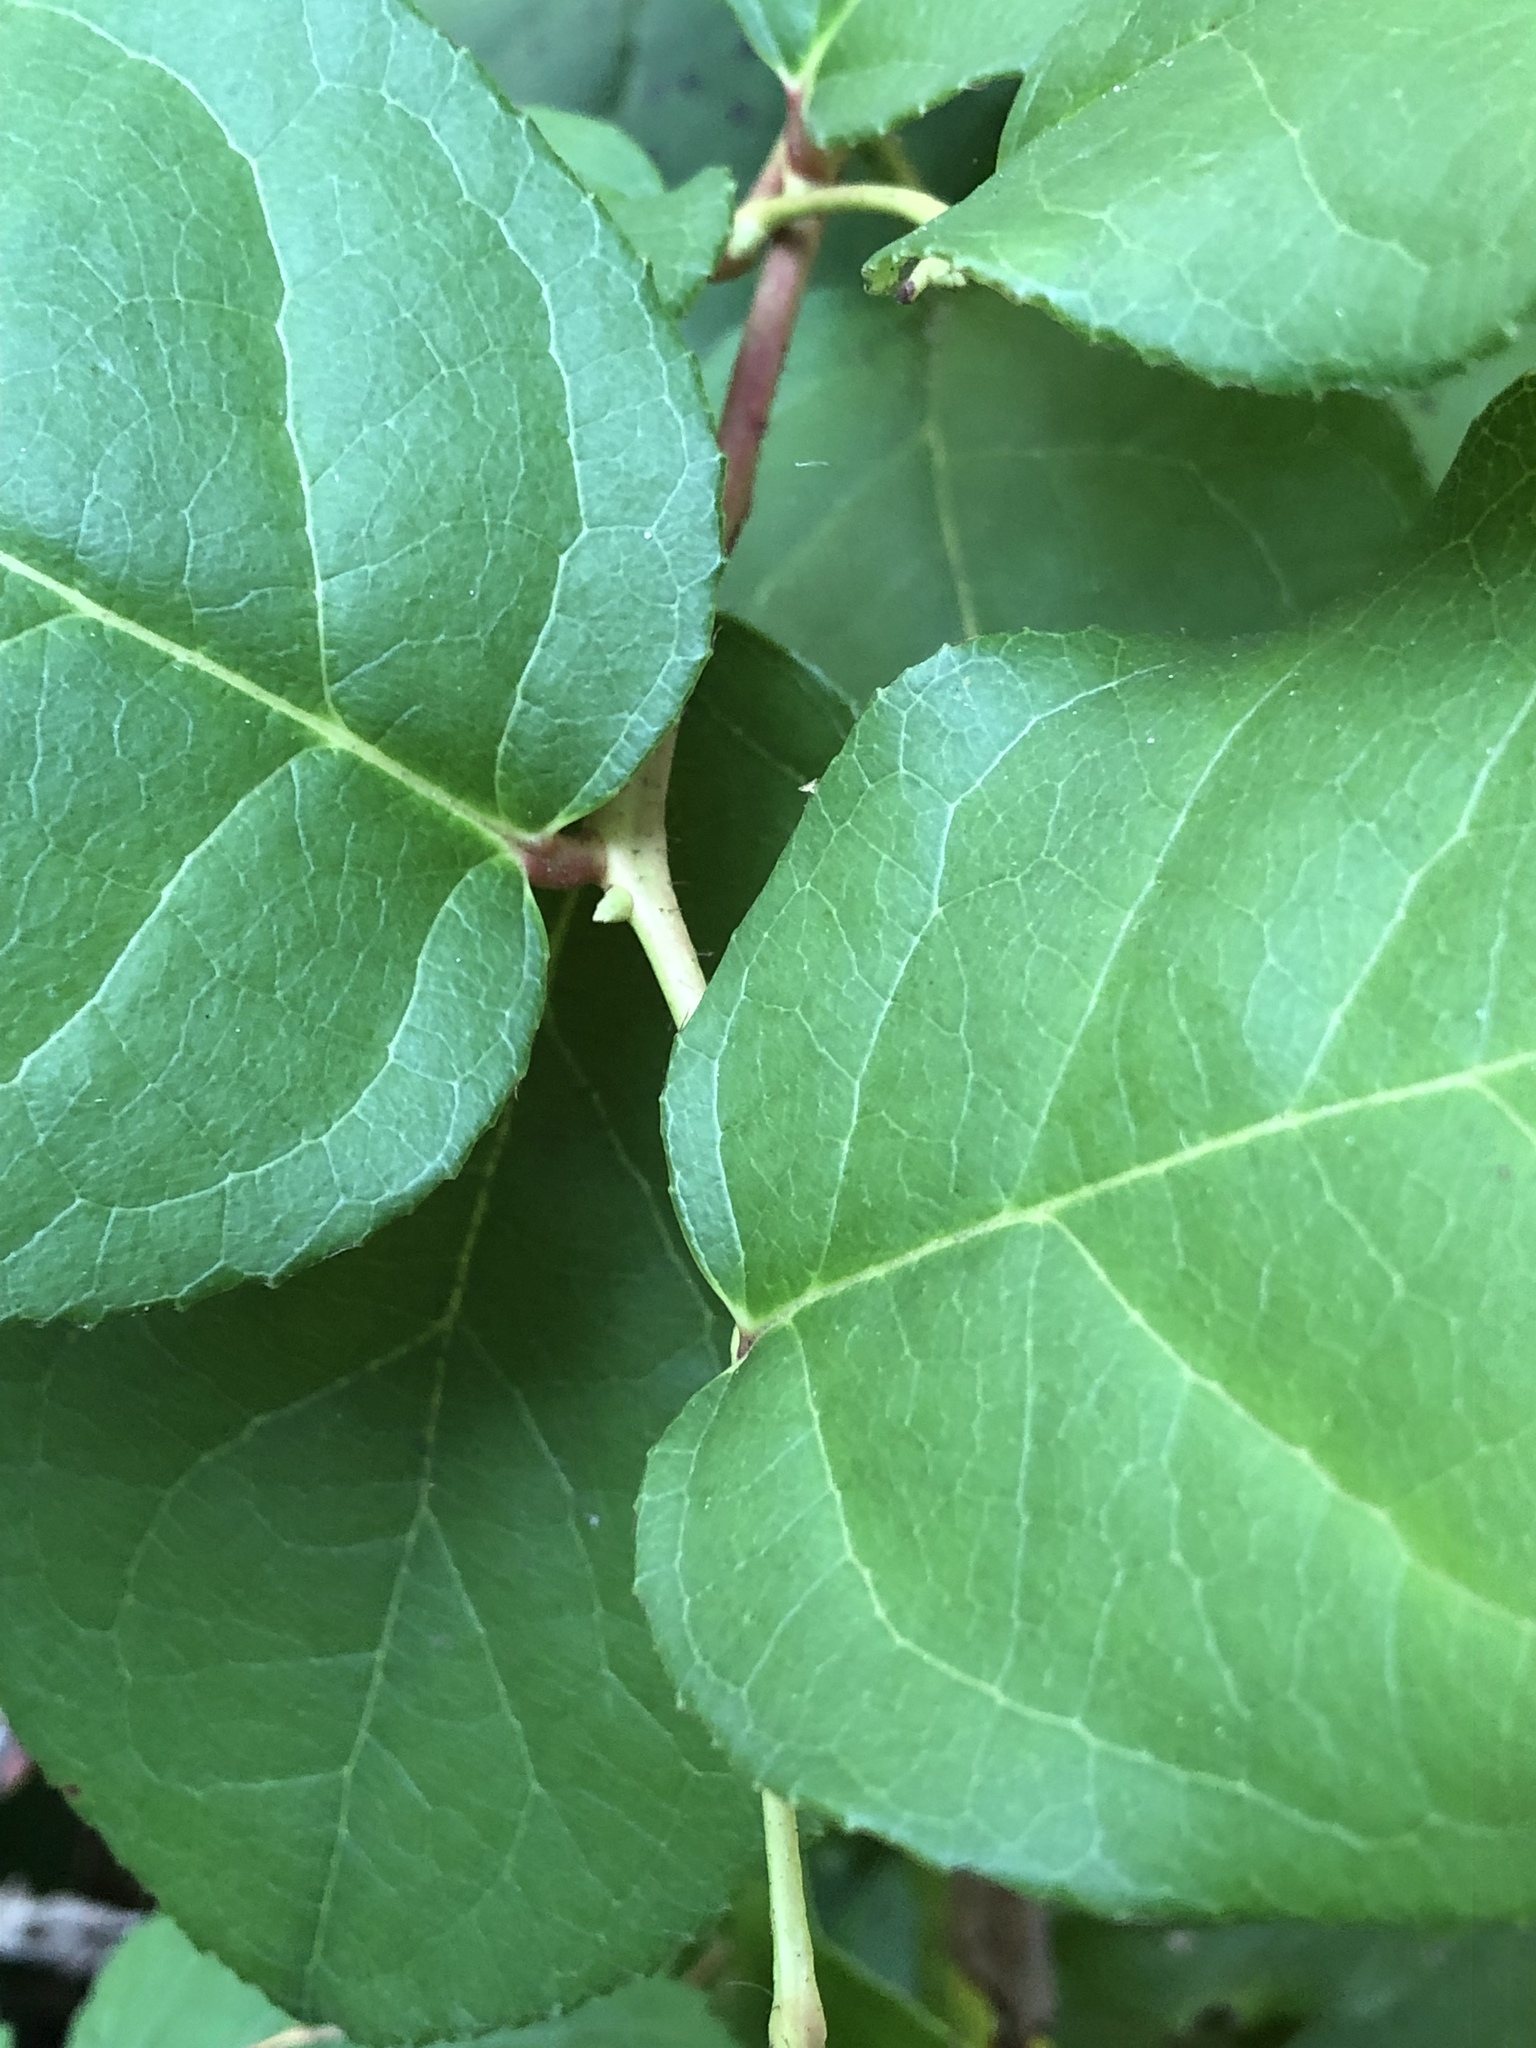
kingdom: Plantae
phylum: Tracheophyta
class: Magnoliopsida
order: Ericales
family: Ericaceae
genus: Gaultheria
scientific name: Gaultheria shallon
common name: Shallon
